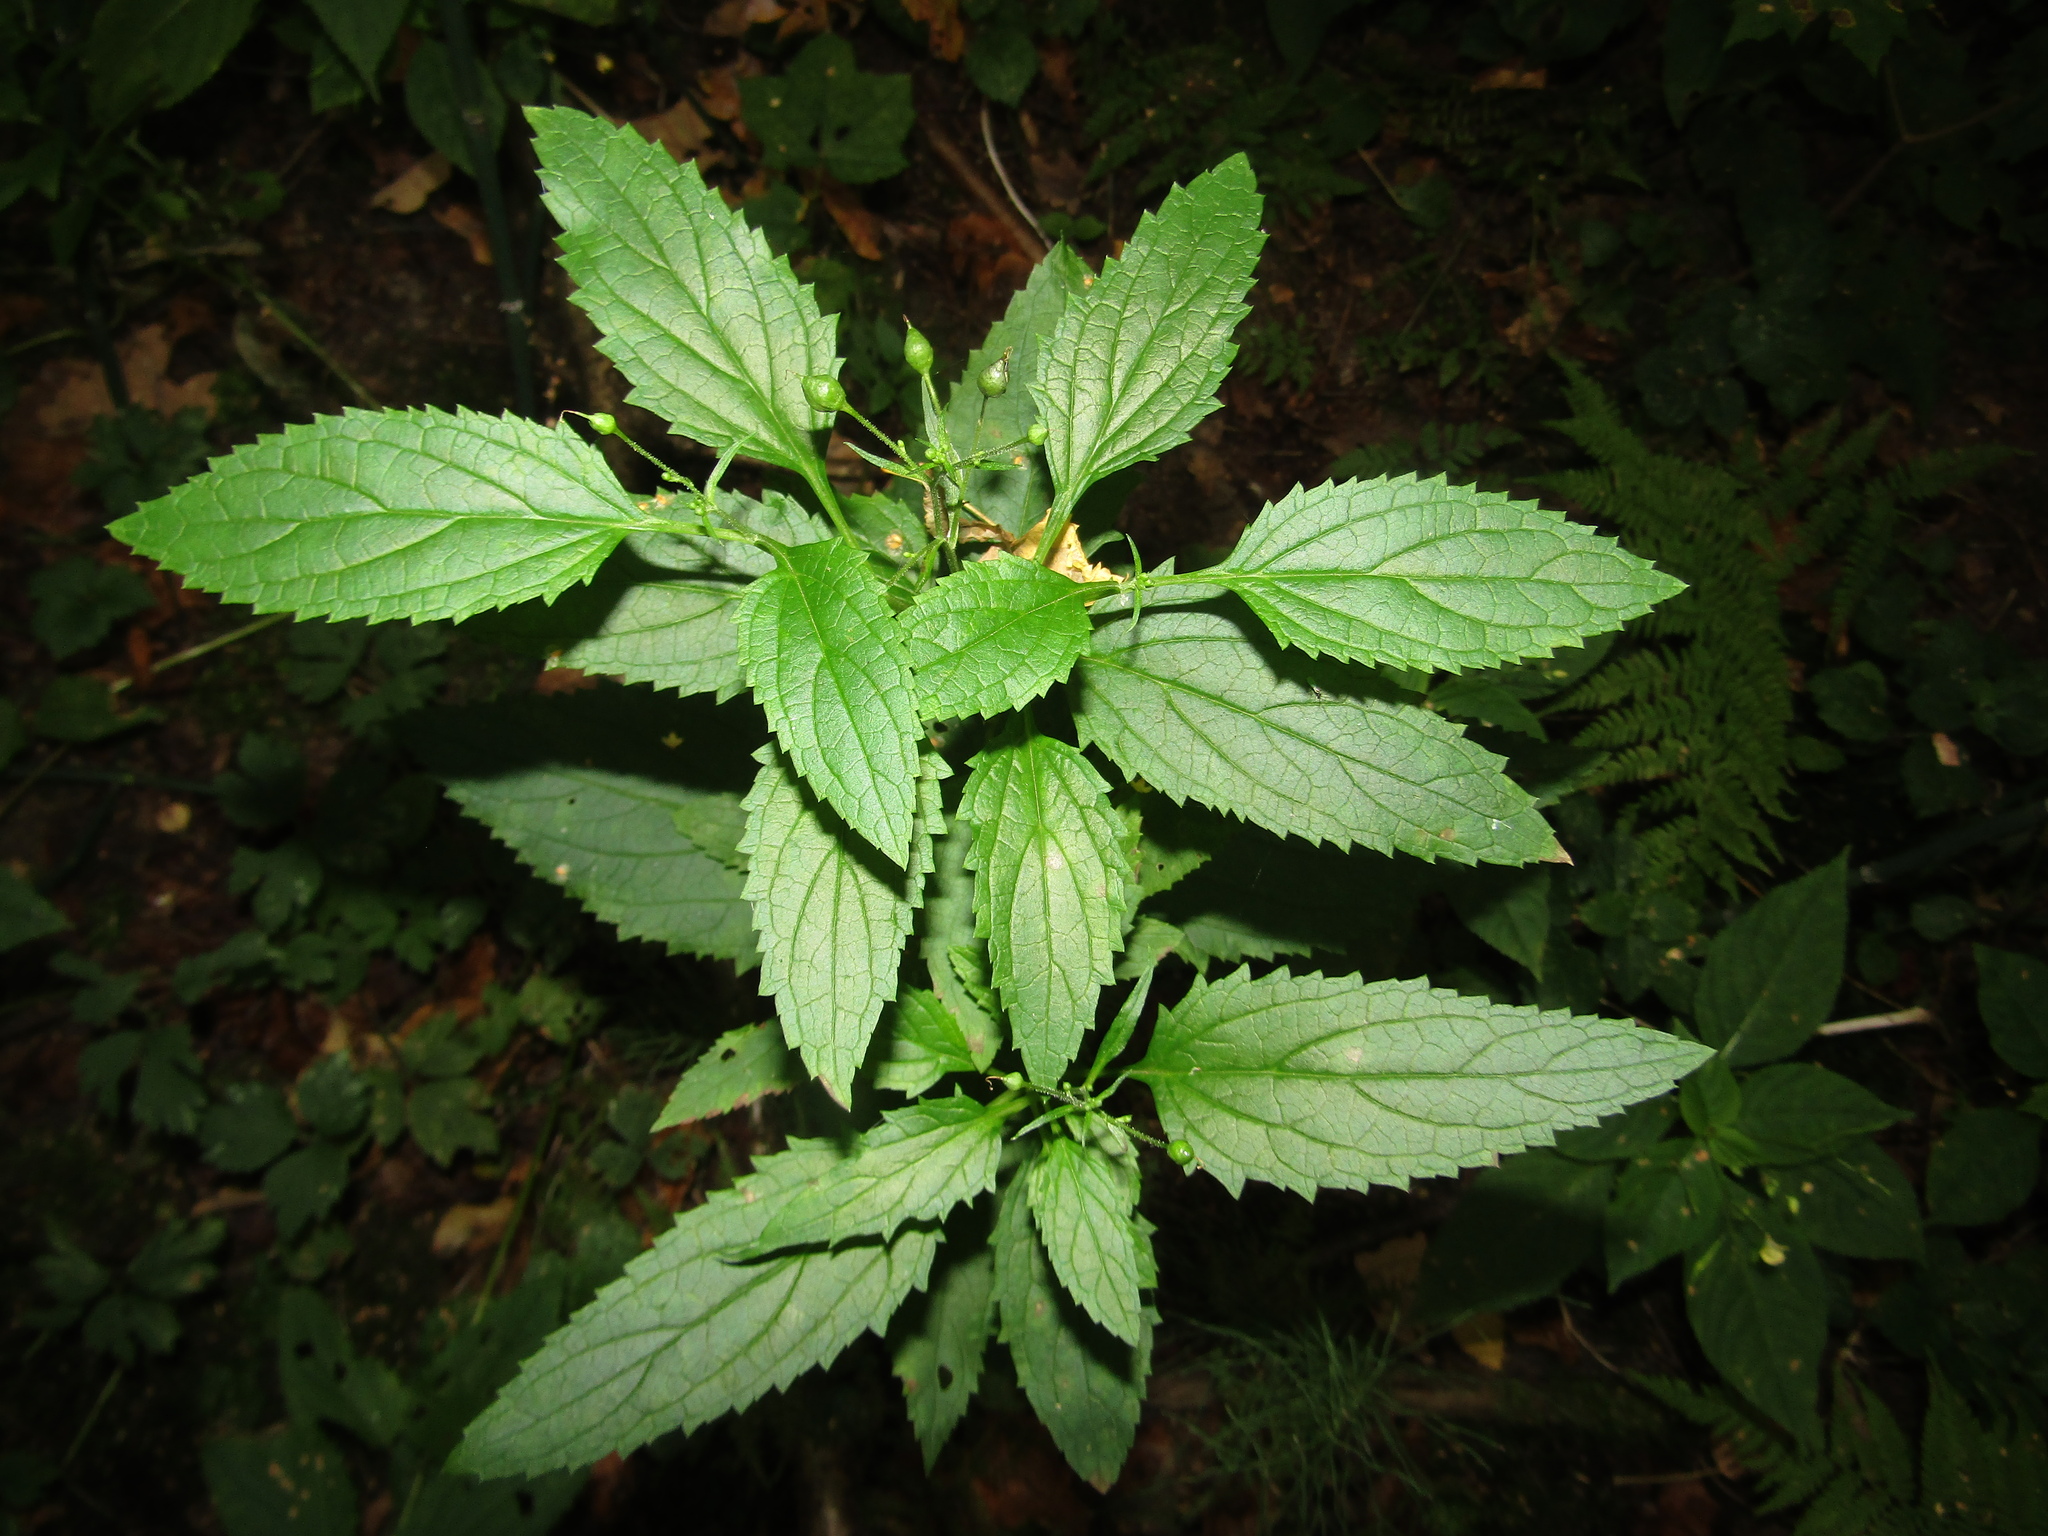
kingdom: Plantae
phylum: Tracheophyta
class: Magnoliopsida
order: Lamiales
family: Scrophulariaceae
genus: Scrophularia
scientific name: Scrophularia nodosa
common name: Common figwort
